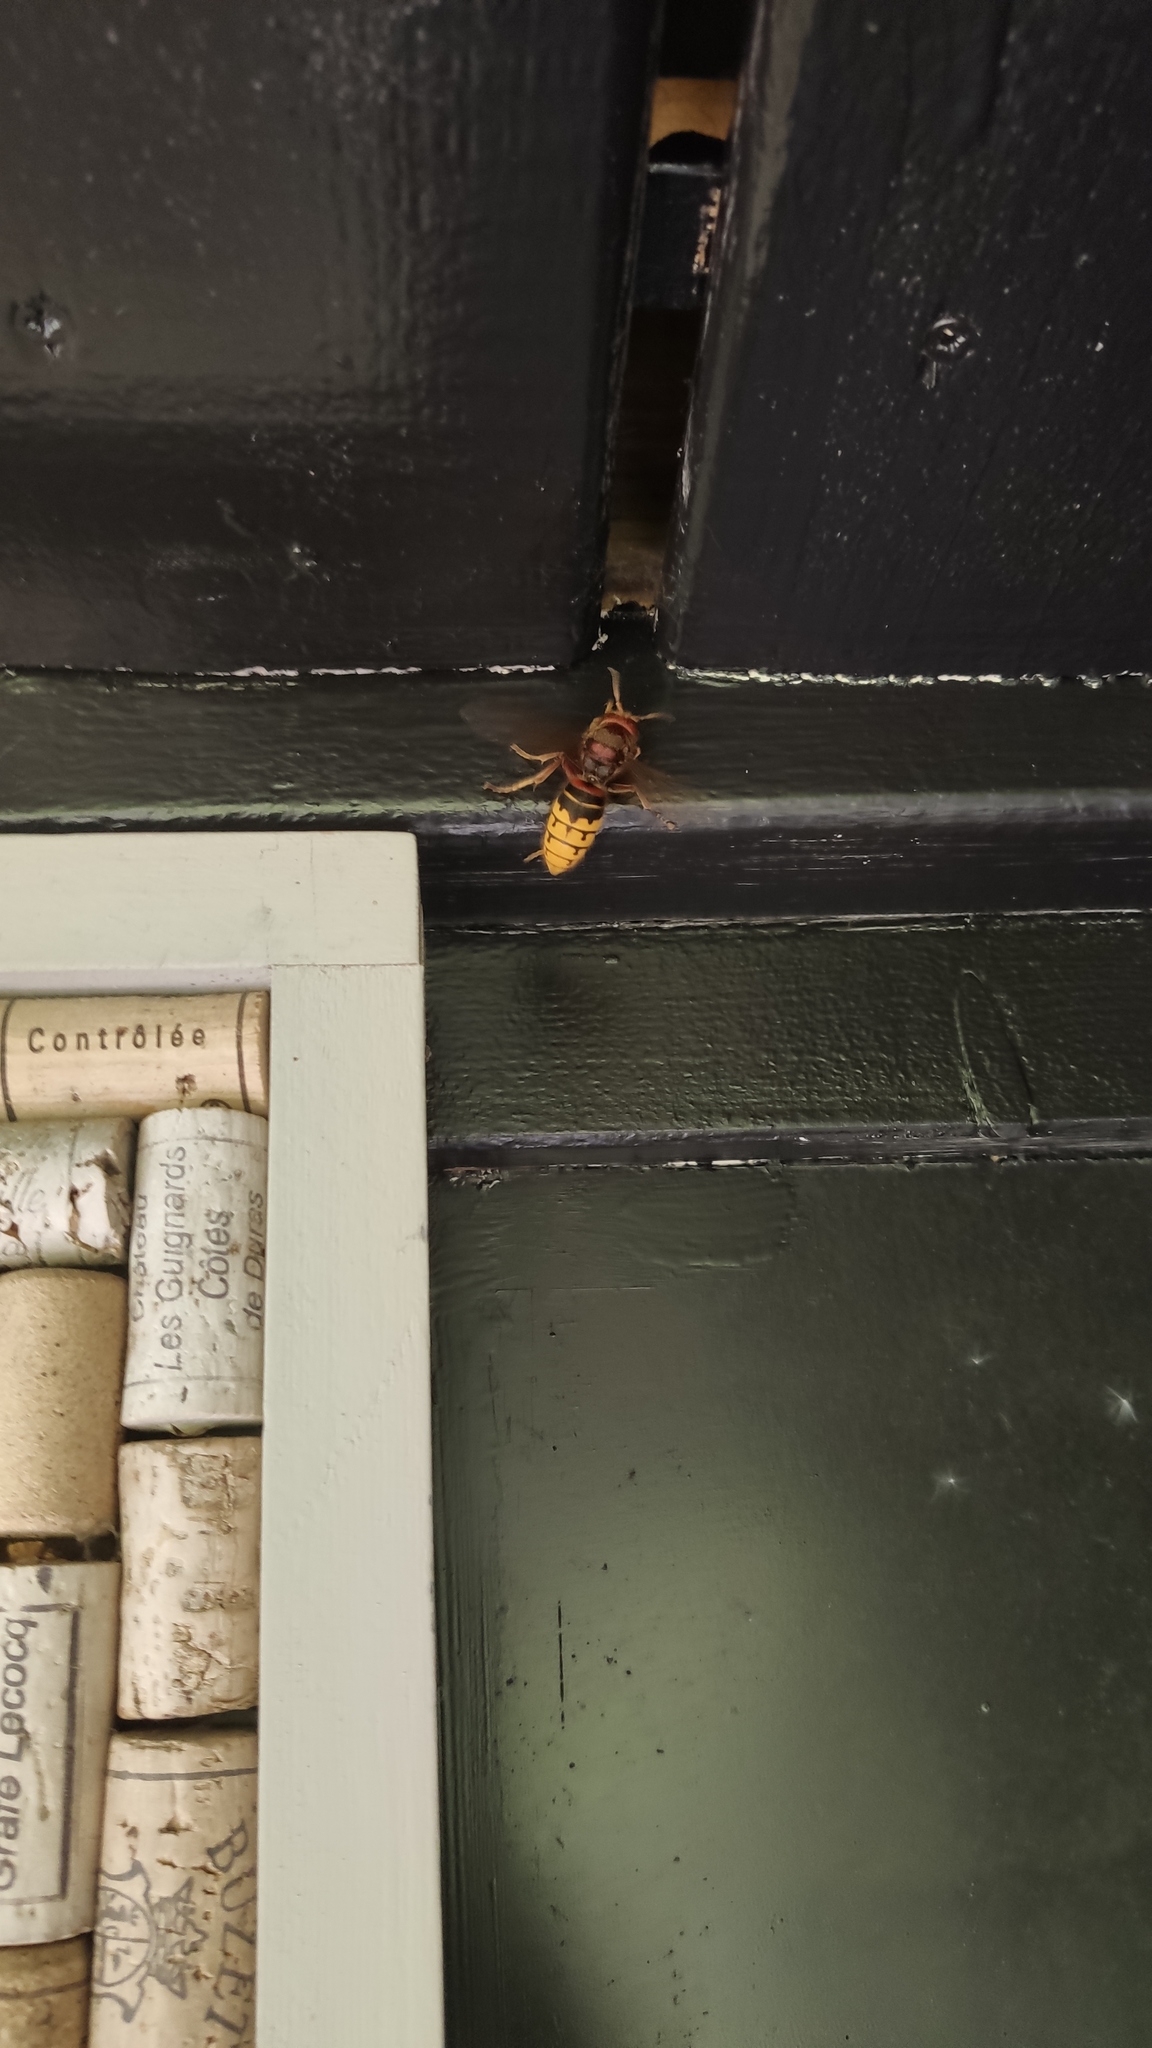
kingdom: Animalia
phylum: Arthropoda
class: Insecta
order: Hymenoptera
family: Vespidae
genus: Vespa
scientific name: Vespa crabro
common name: Hornet
